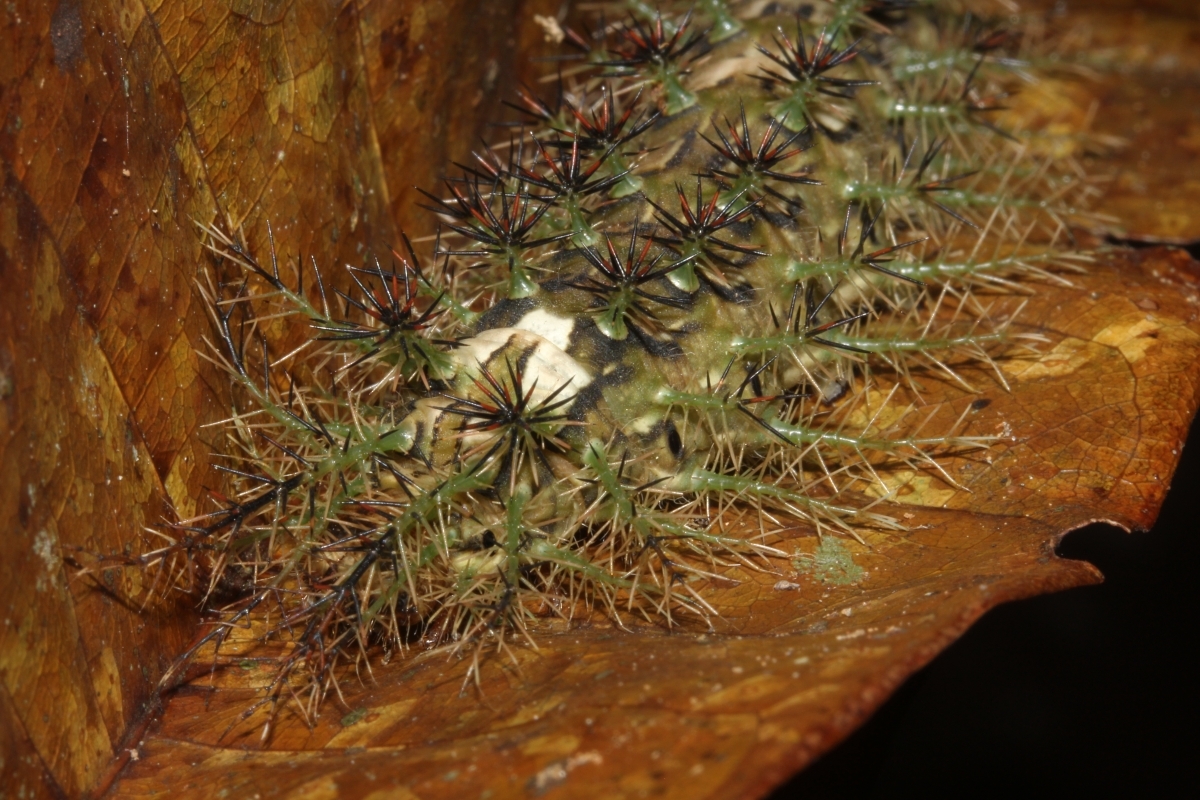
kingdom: Animalia
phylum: Arthropoda
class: Insecta
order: Lepidoptera
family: Saturniidae
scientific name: Saturniidae
